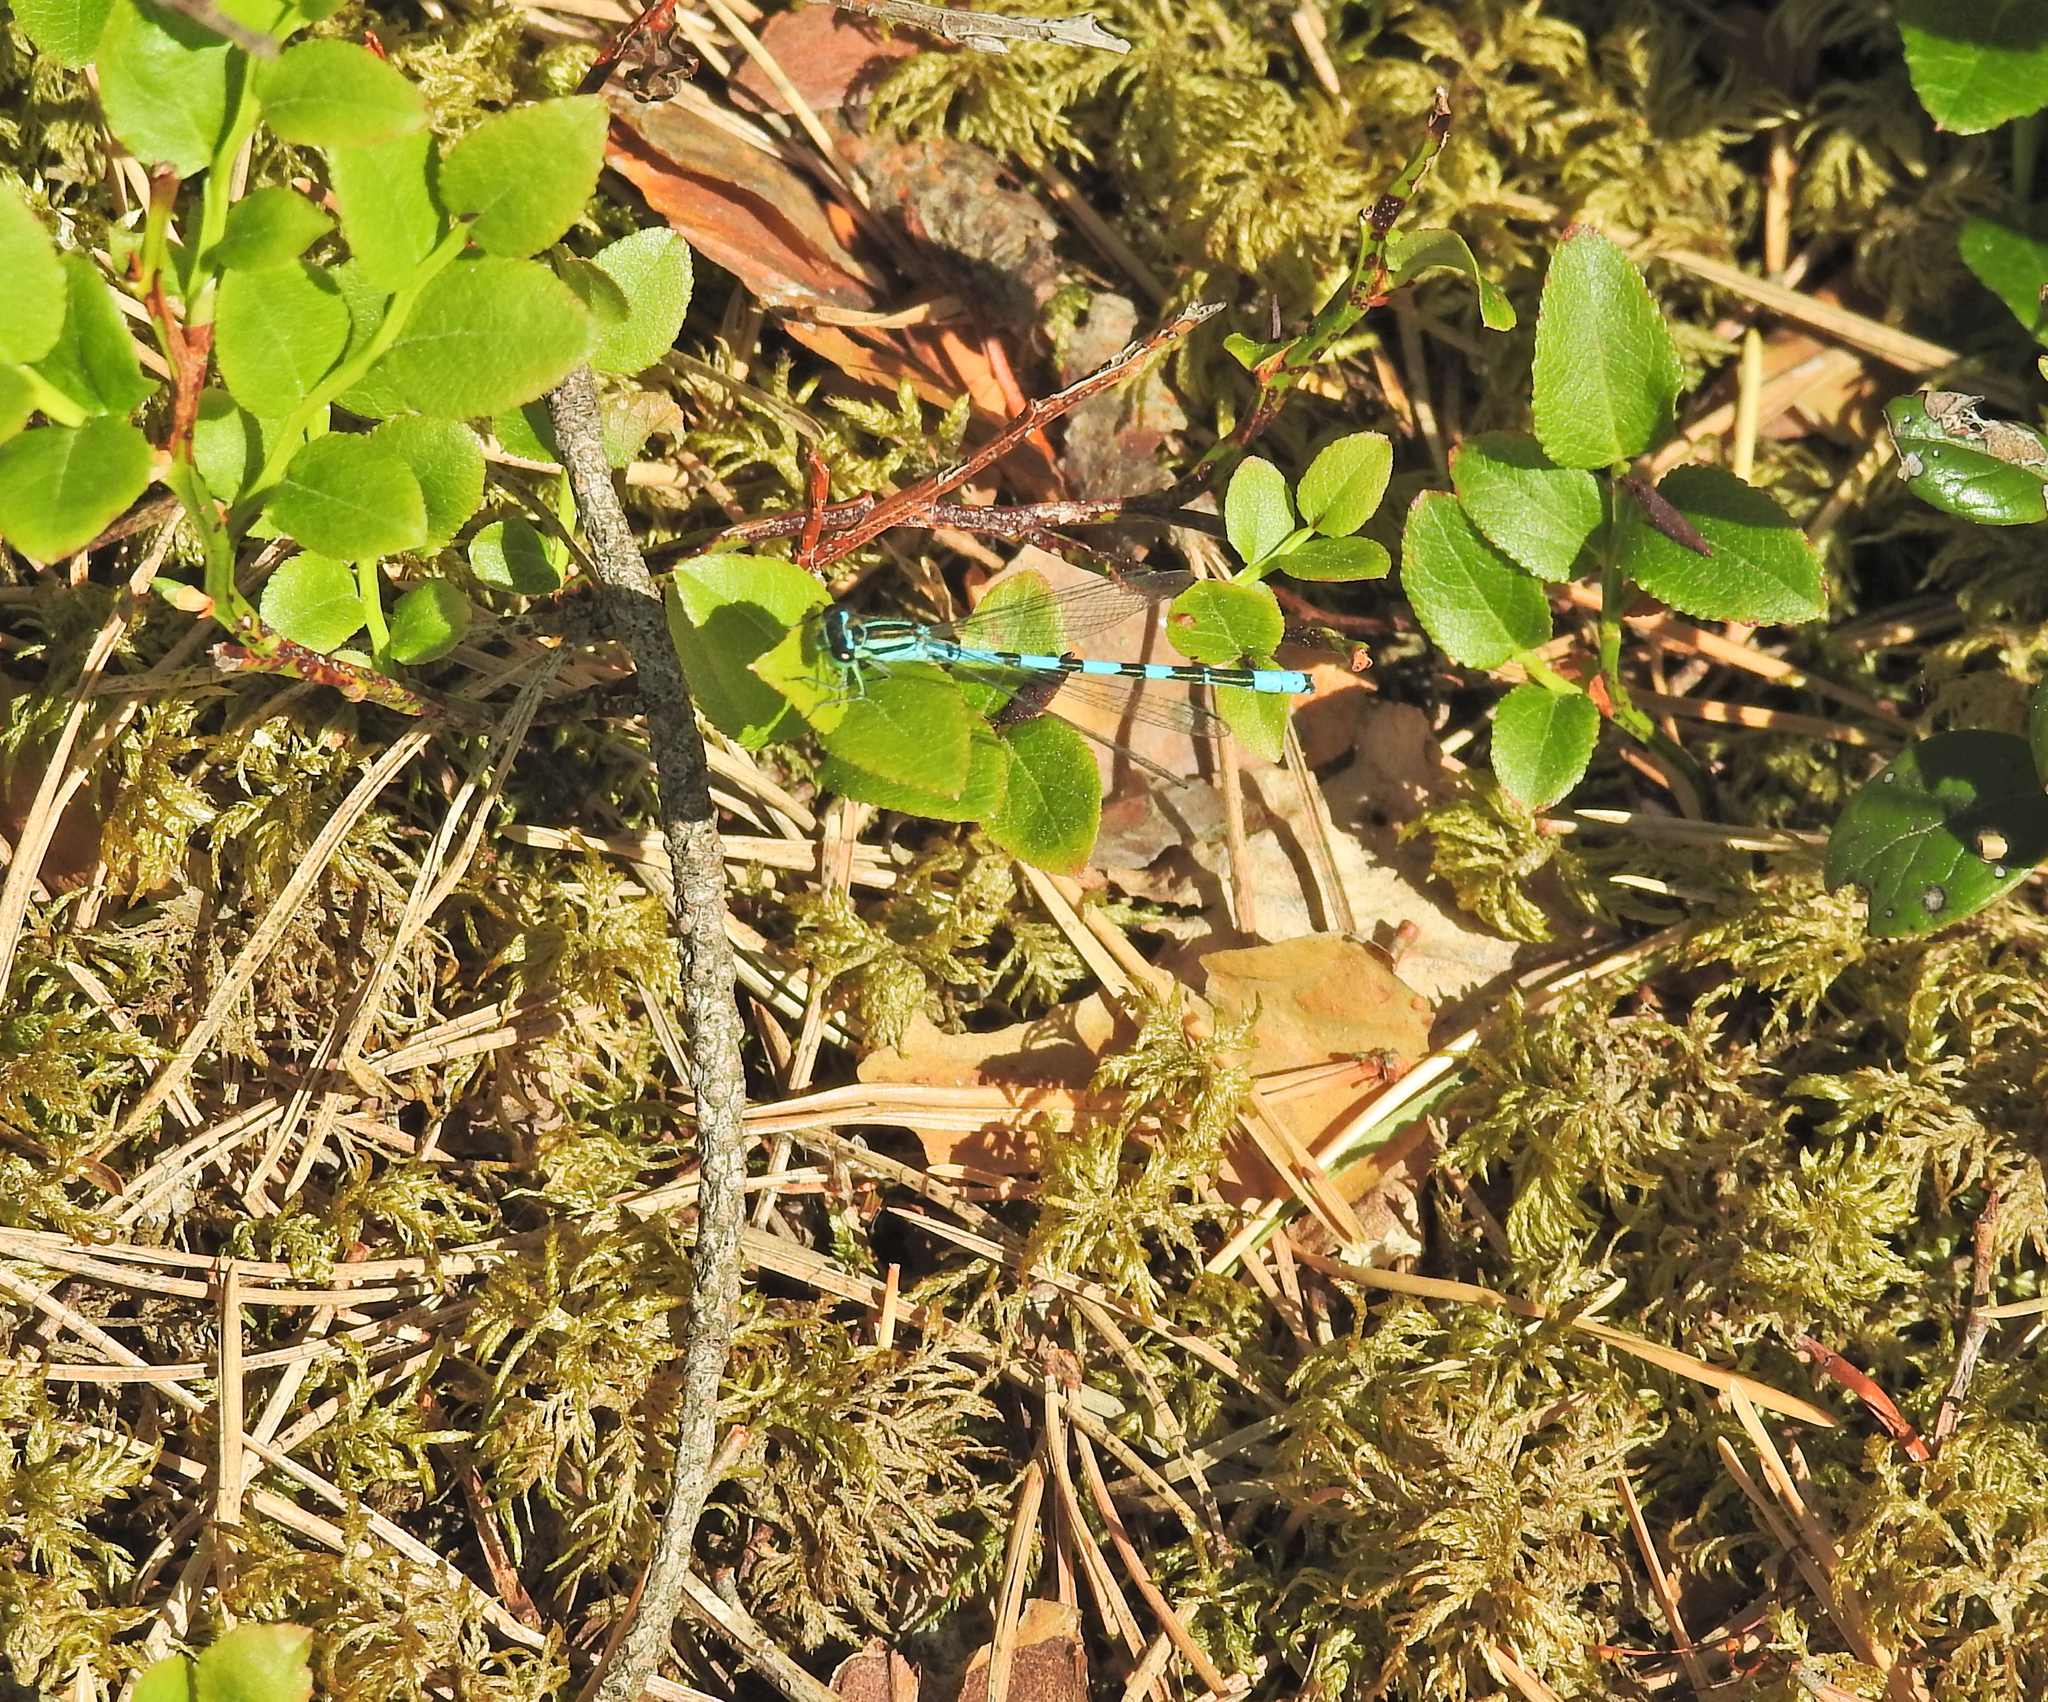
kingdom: Animalia
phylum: Arthropoda
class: Insecta
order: Odonata
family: Coenagrionidae
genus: Coenagrion
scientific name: Coenagrion hastulatum
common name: Spearhead bluet
